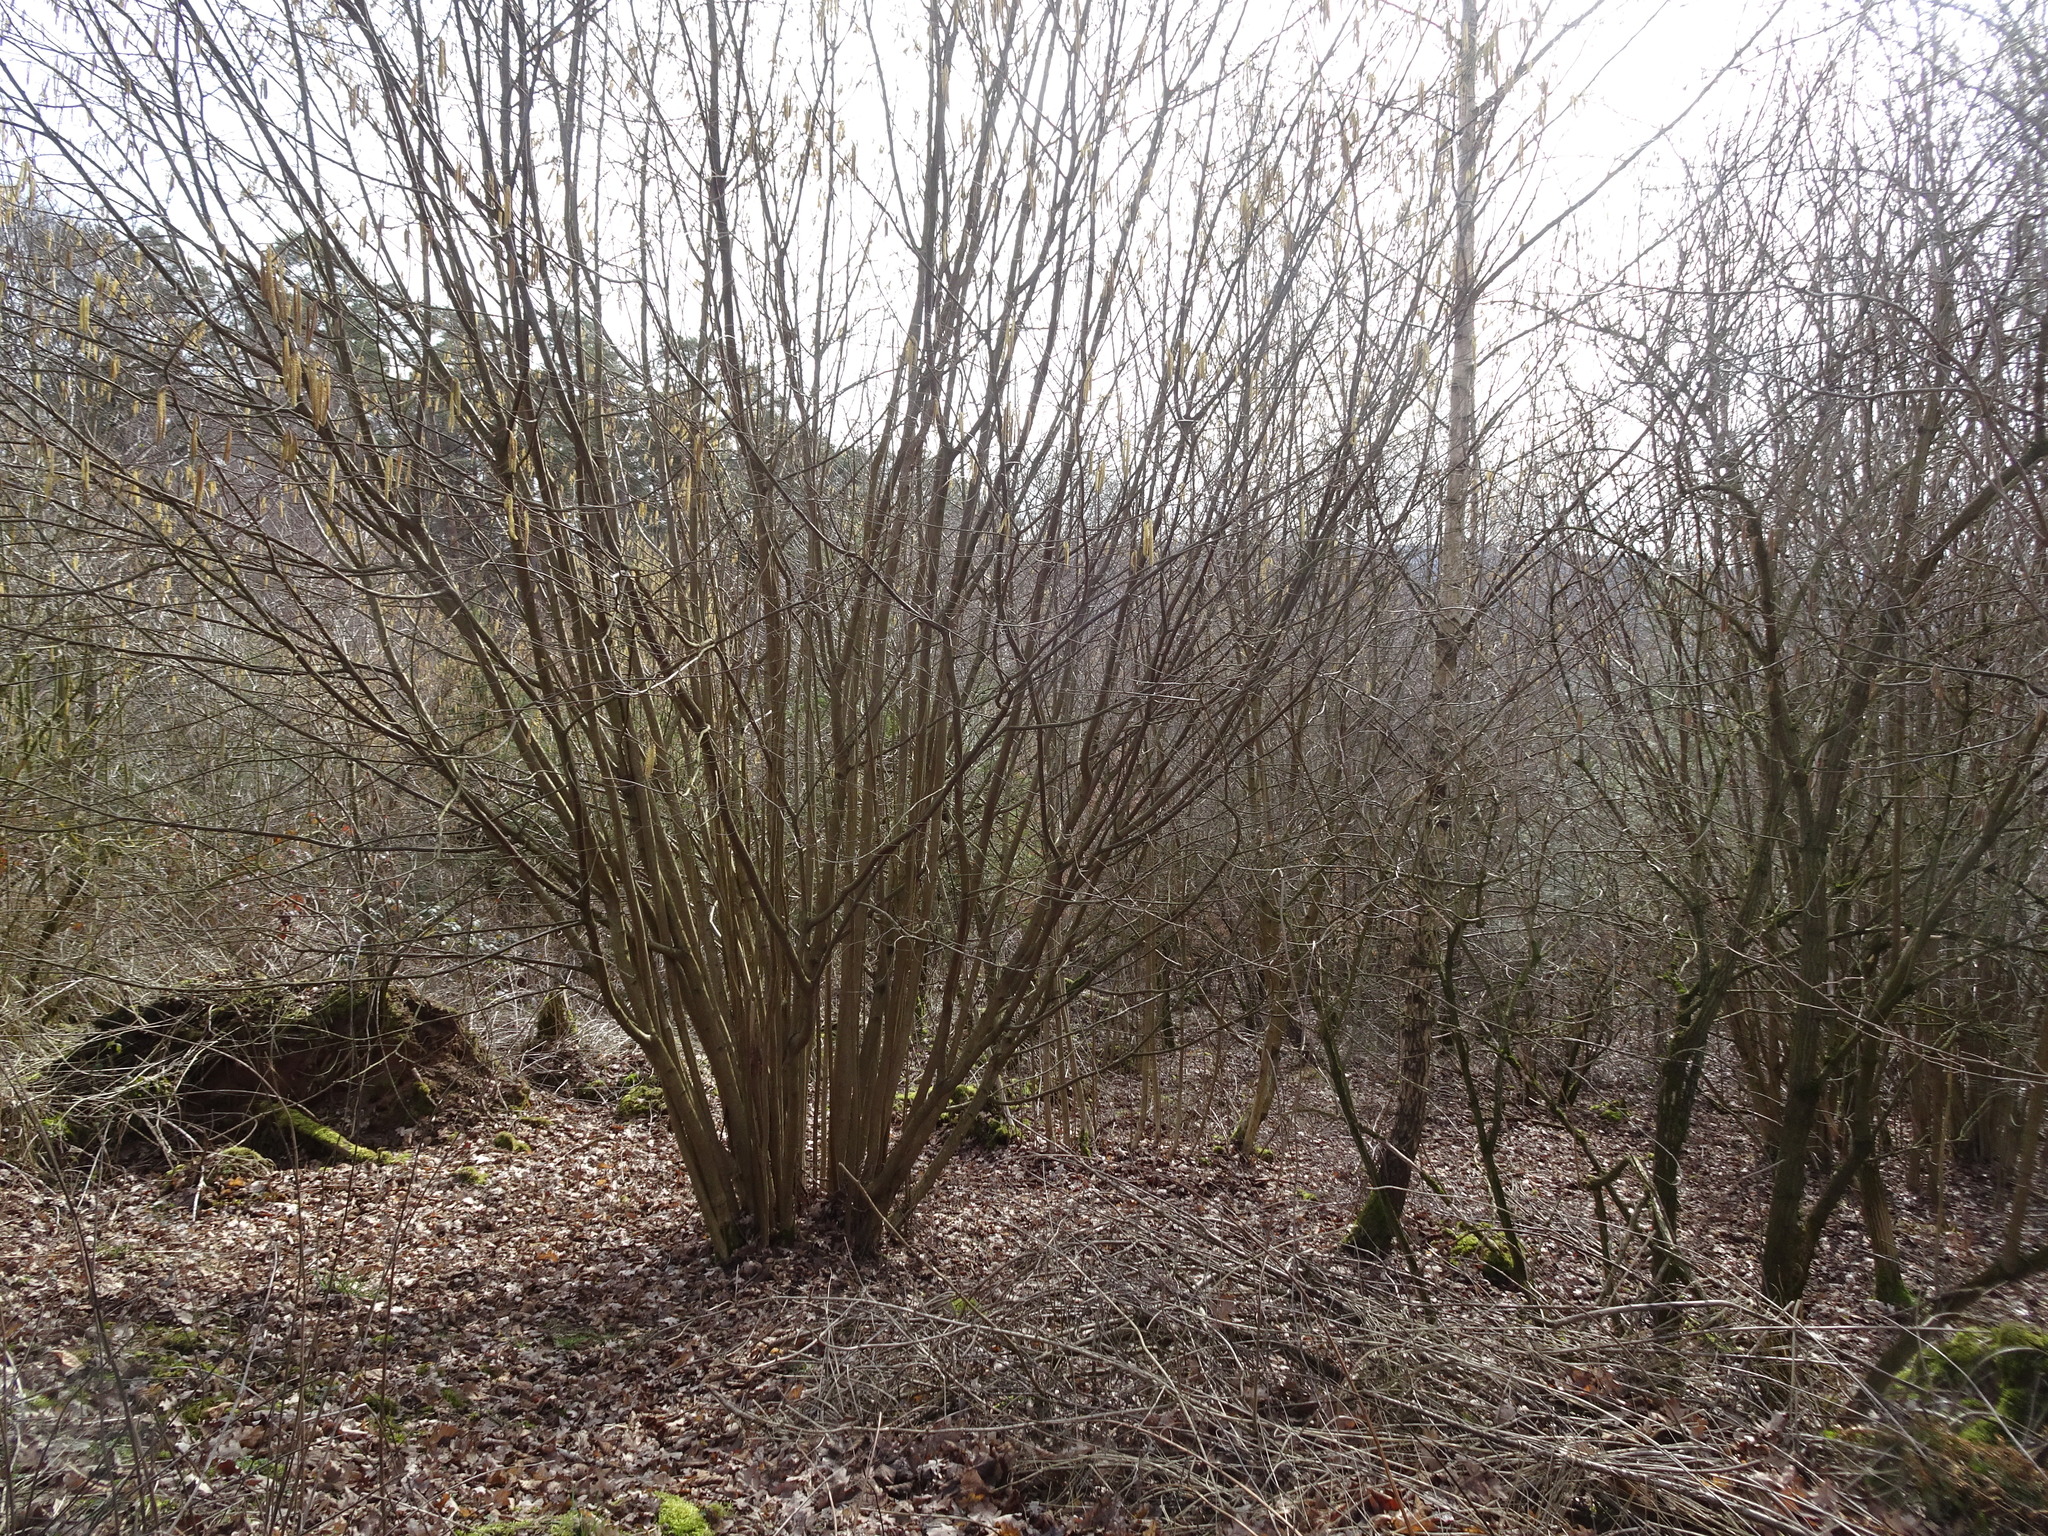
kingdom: Plantae
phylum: Tracheophyta
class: Magnoliopsida
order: Fagales
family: Betulaceae
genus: Corylus
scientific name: Corylus avellana
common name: European hazel
